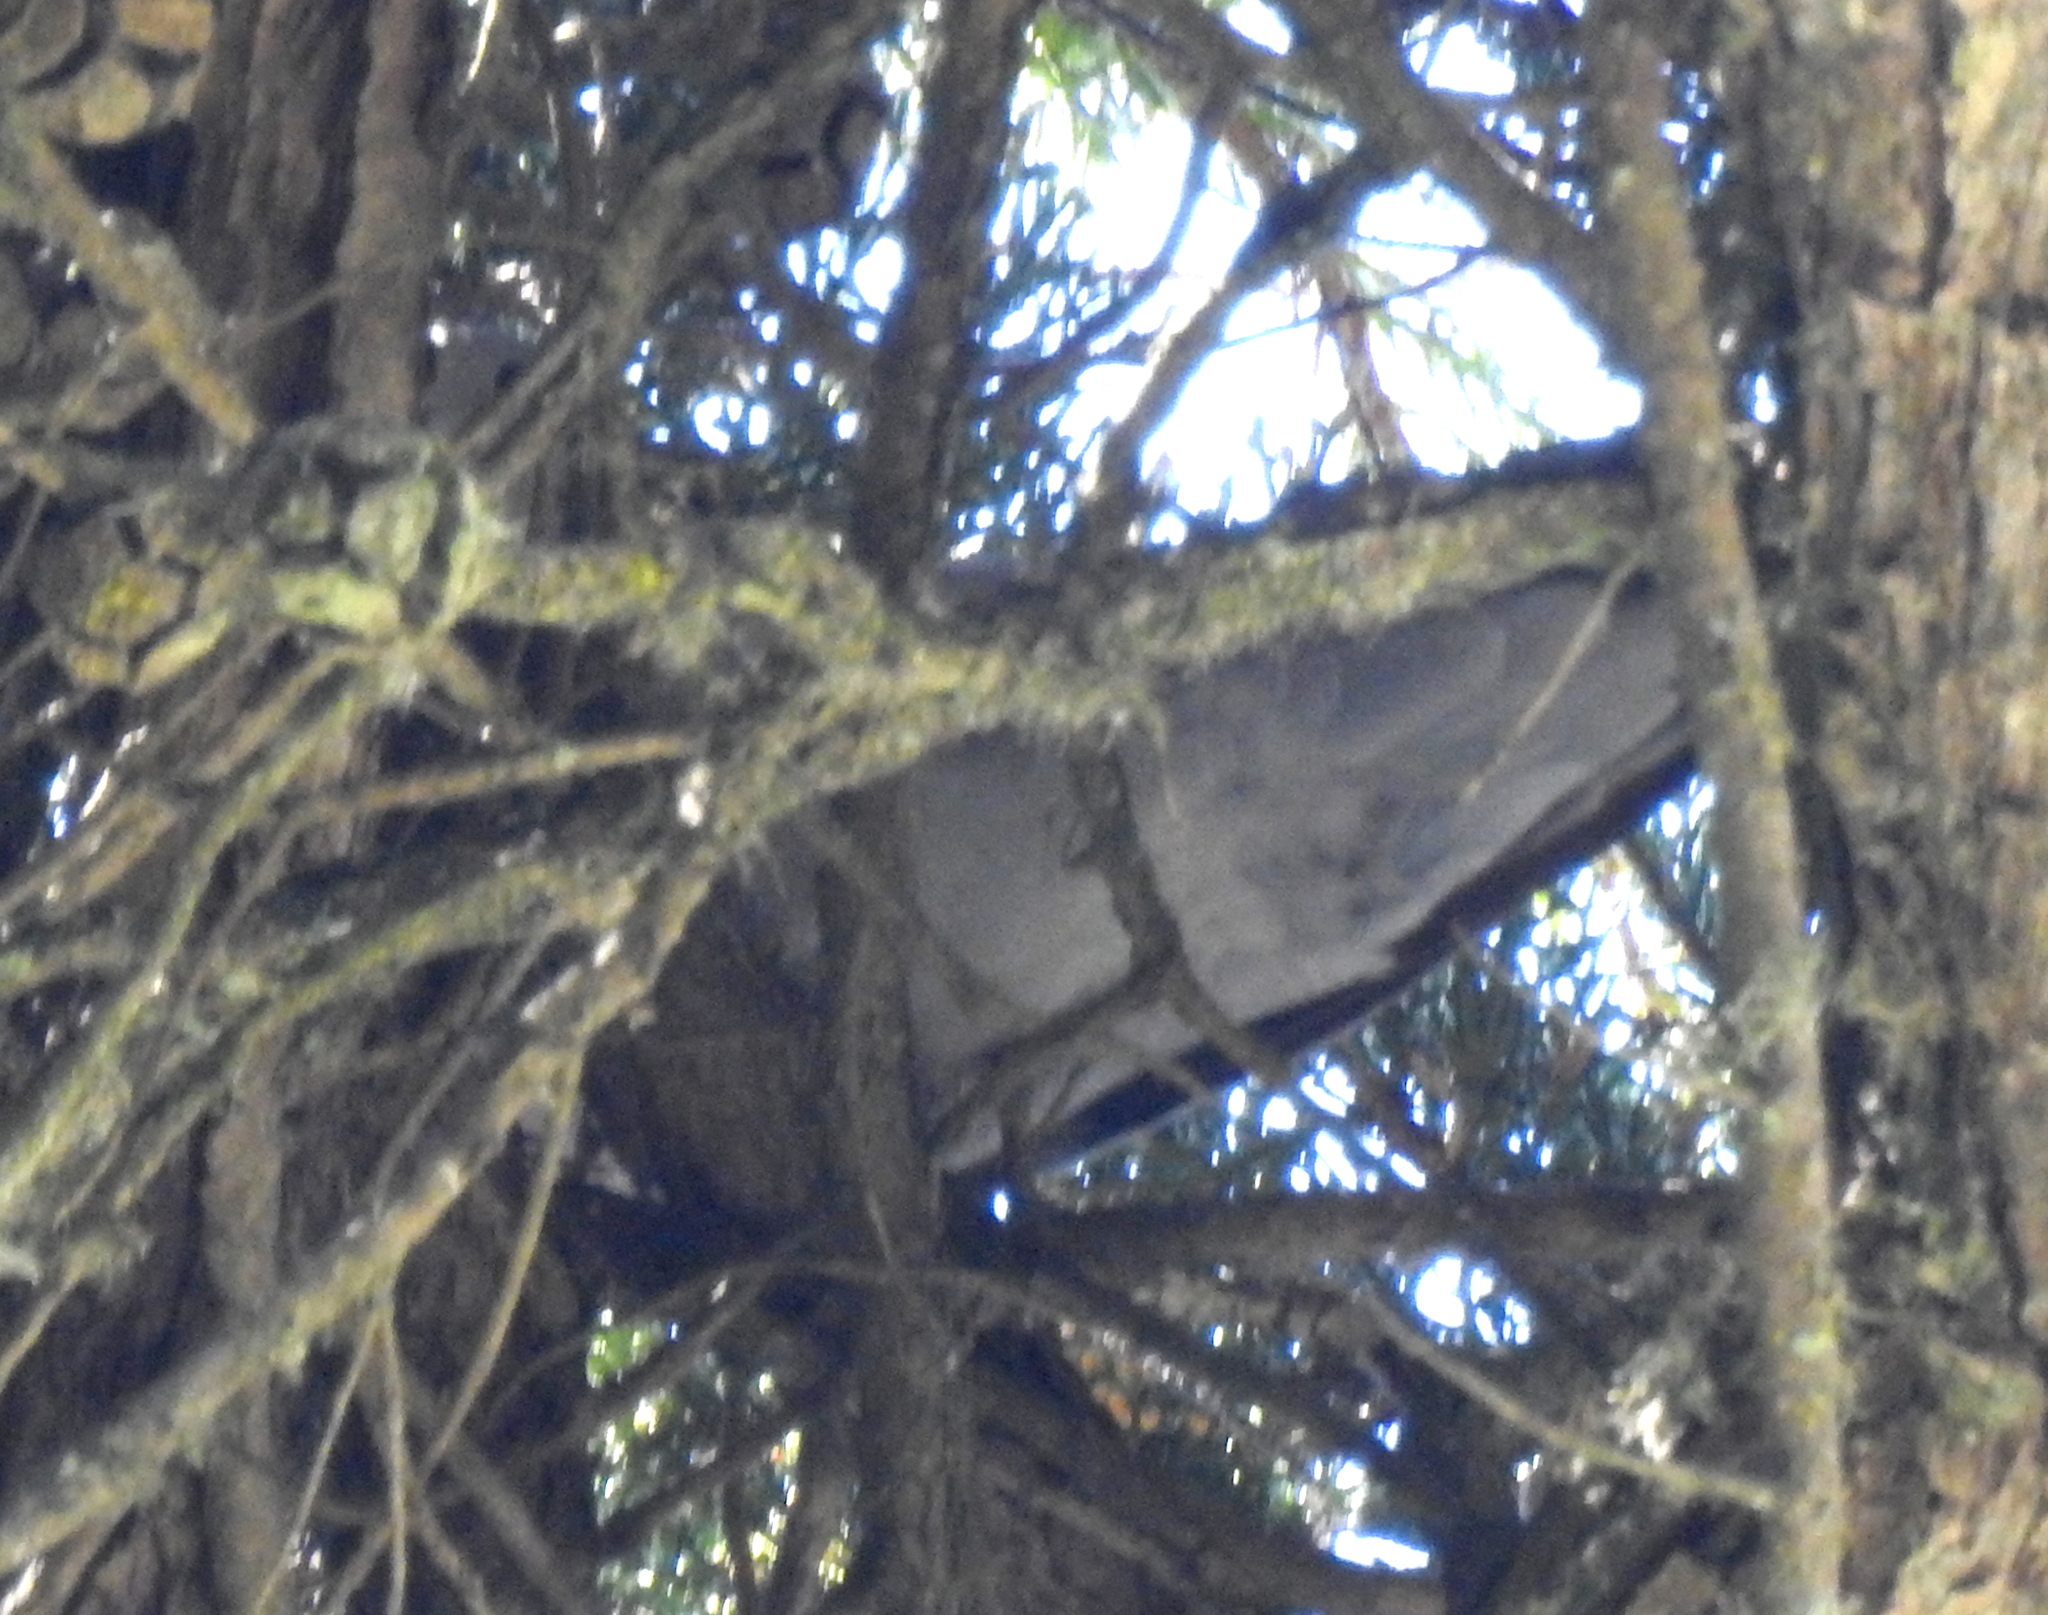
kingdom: Animalia
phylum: Chordata
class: Aves
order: Columbiformes
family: Columbidae
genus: Streptopelia
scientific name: Streptopelia decaocto
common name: Eurasian collared dove
